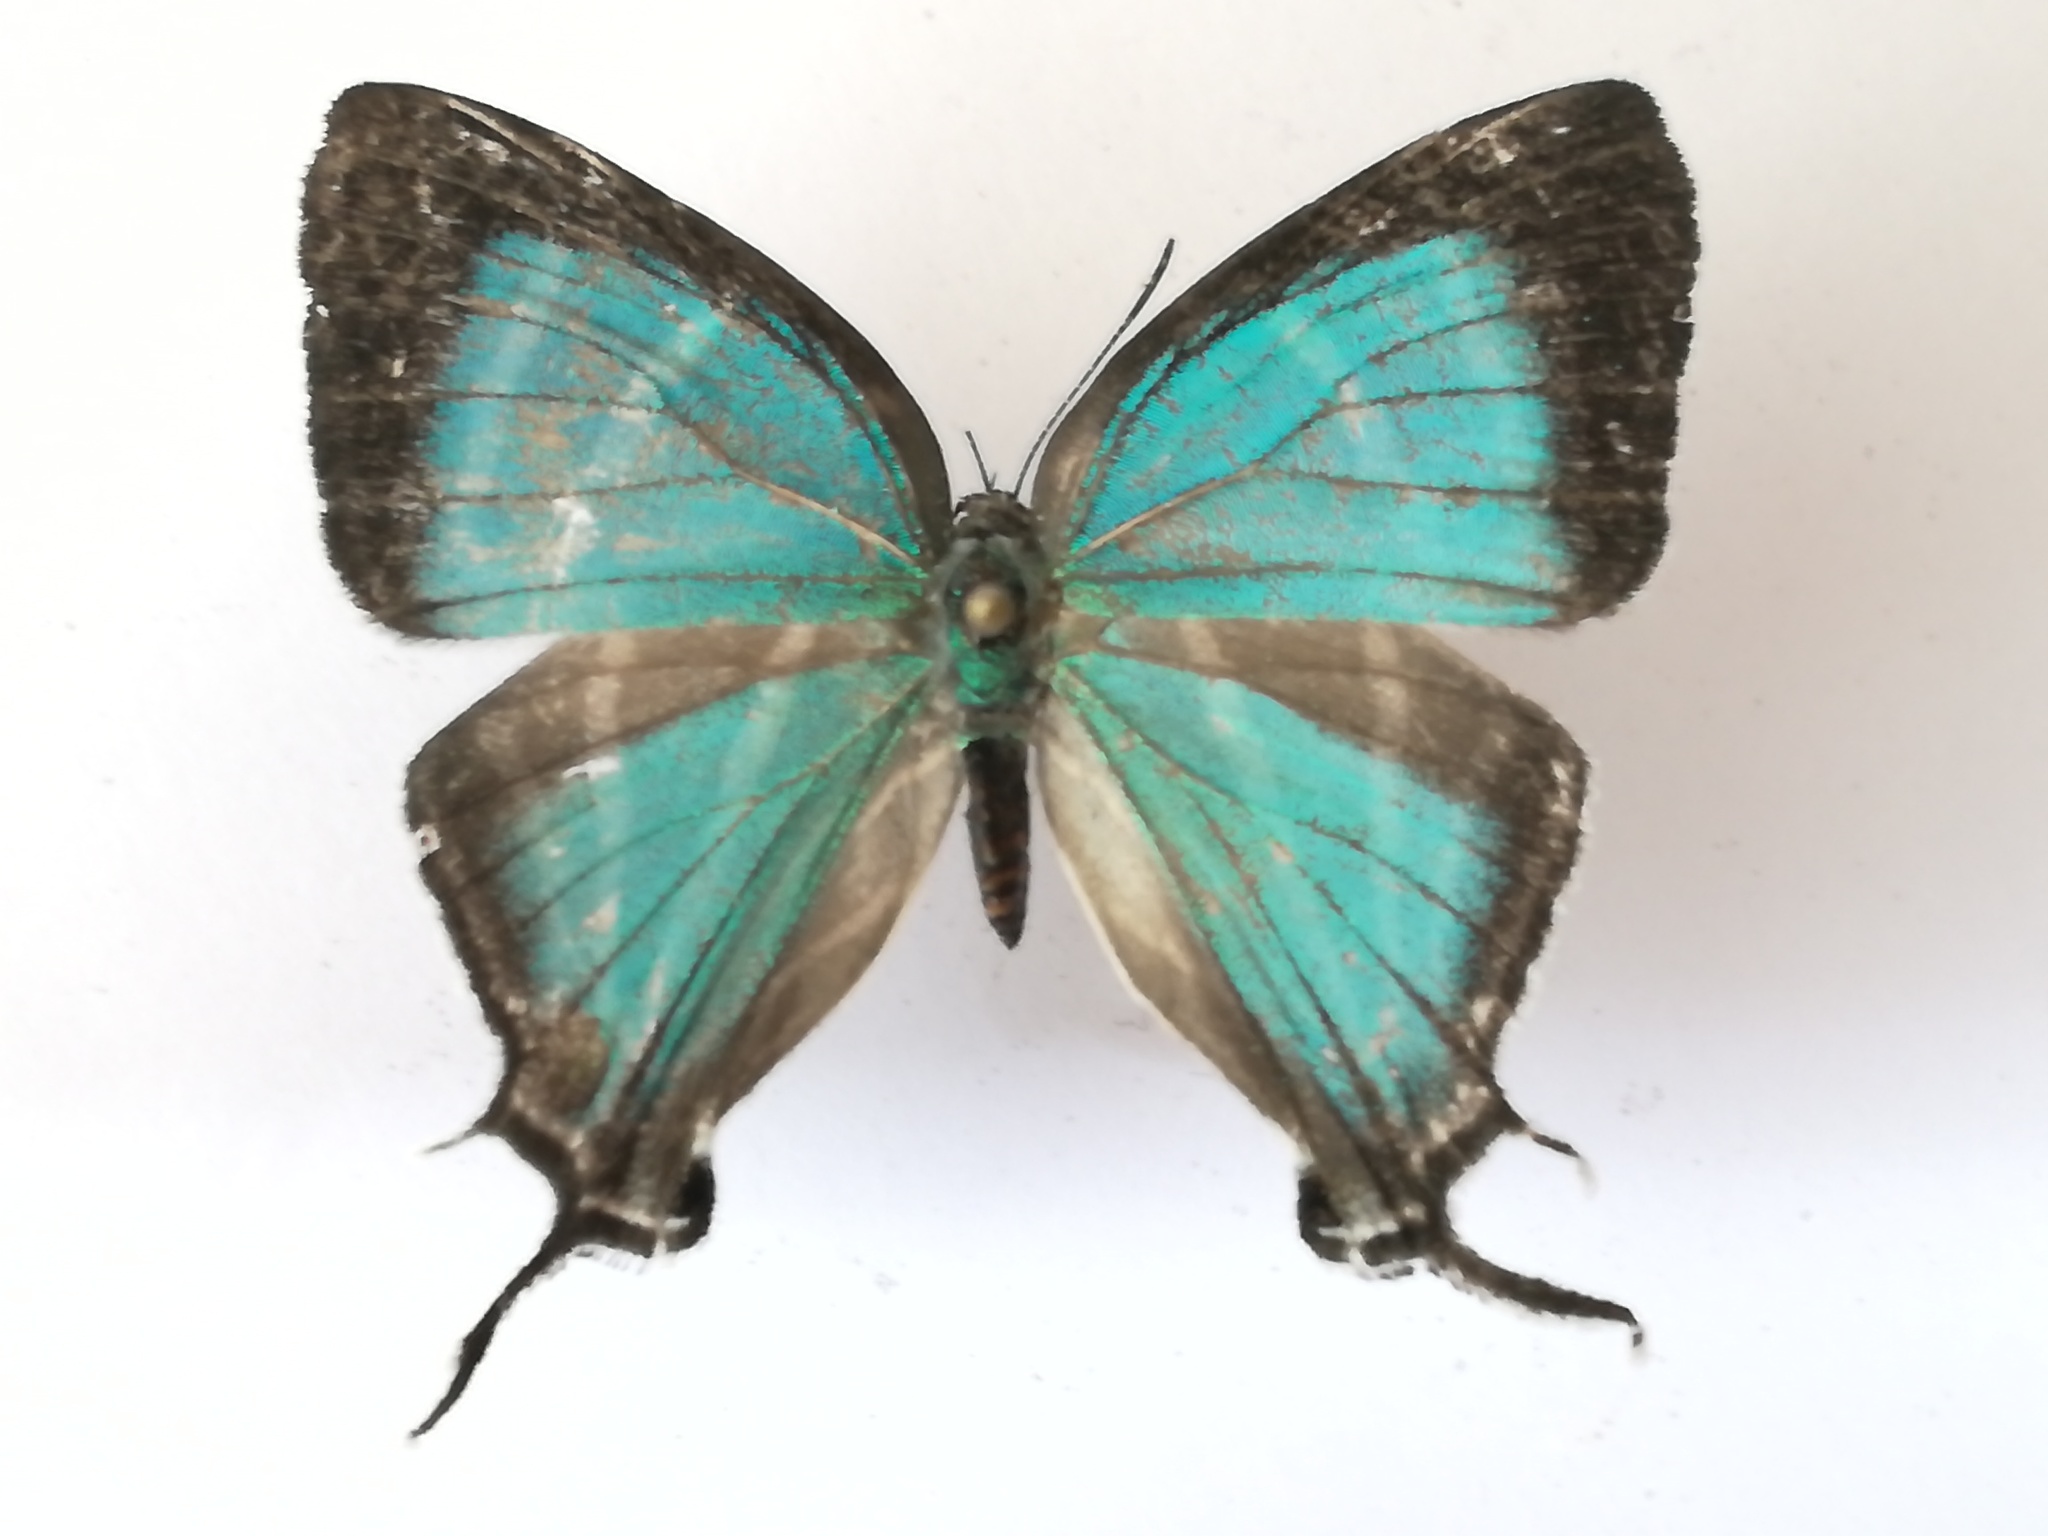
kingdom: Animalia
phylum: Arthropoda
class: Insecta
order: Lepidoptera
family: Lycaenidae
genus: Laothus
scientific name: Laothus barajo
